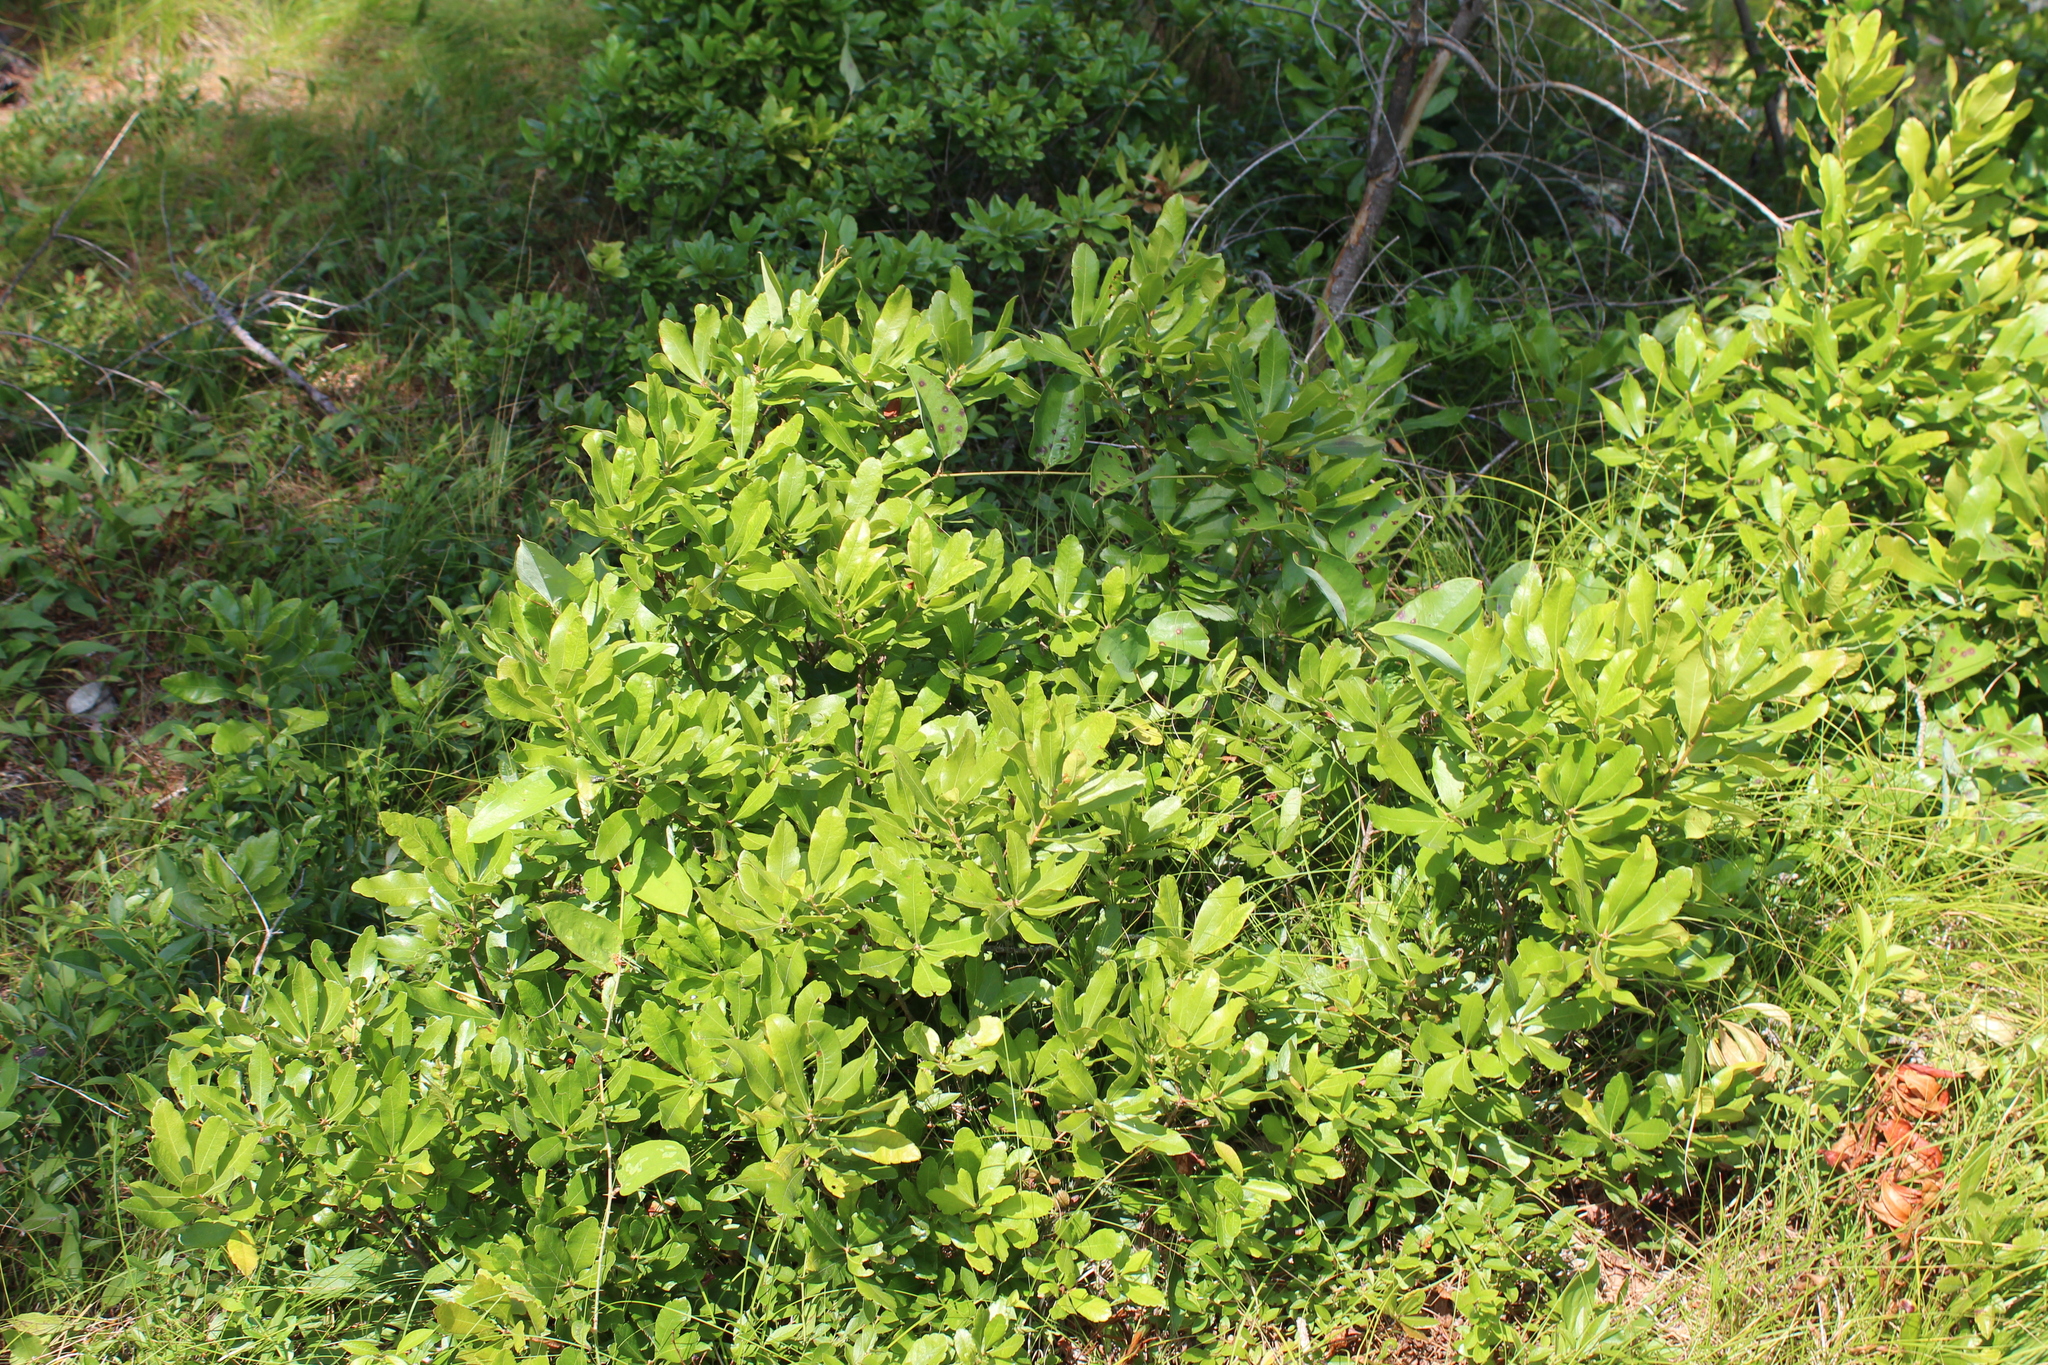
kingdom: Plantae
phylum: Tracheophyta
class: Magnoliopsida
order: Fagales
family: Myricaceae
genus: Morella
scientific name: Morella pensylvanica
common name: Northern bayberry
